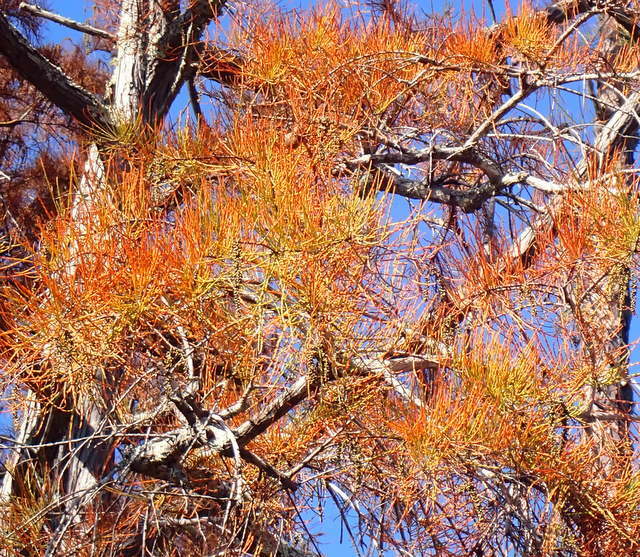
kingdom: Plantae
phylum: Tracheophyta
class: Pinopsida
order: Pinales
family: Cupressaceae
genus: Taxodium
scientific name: Taxodium distichum
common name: Bald cypress
